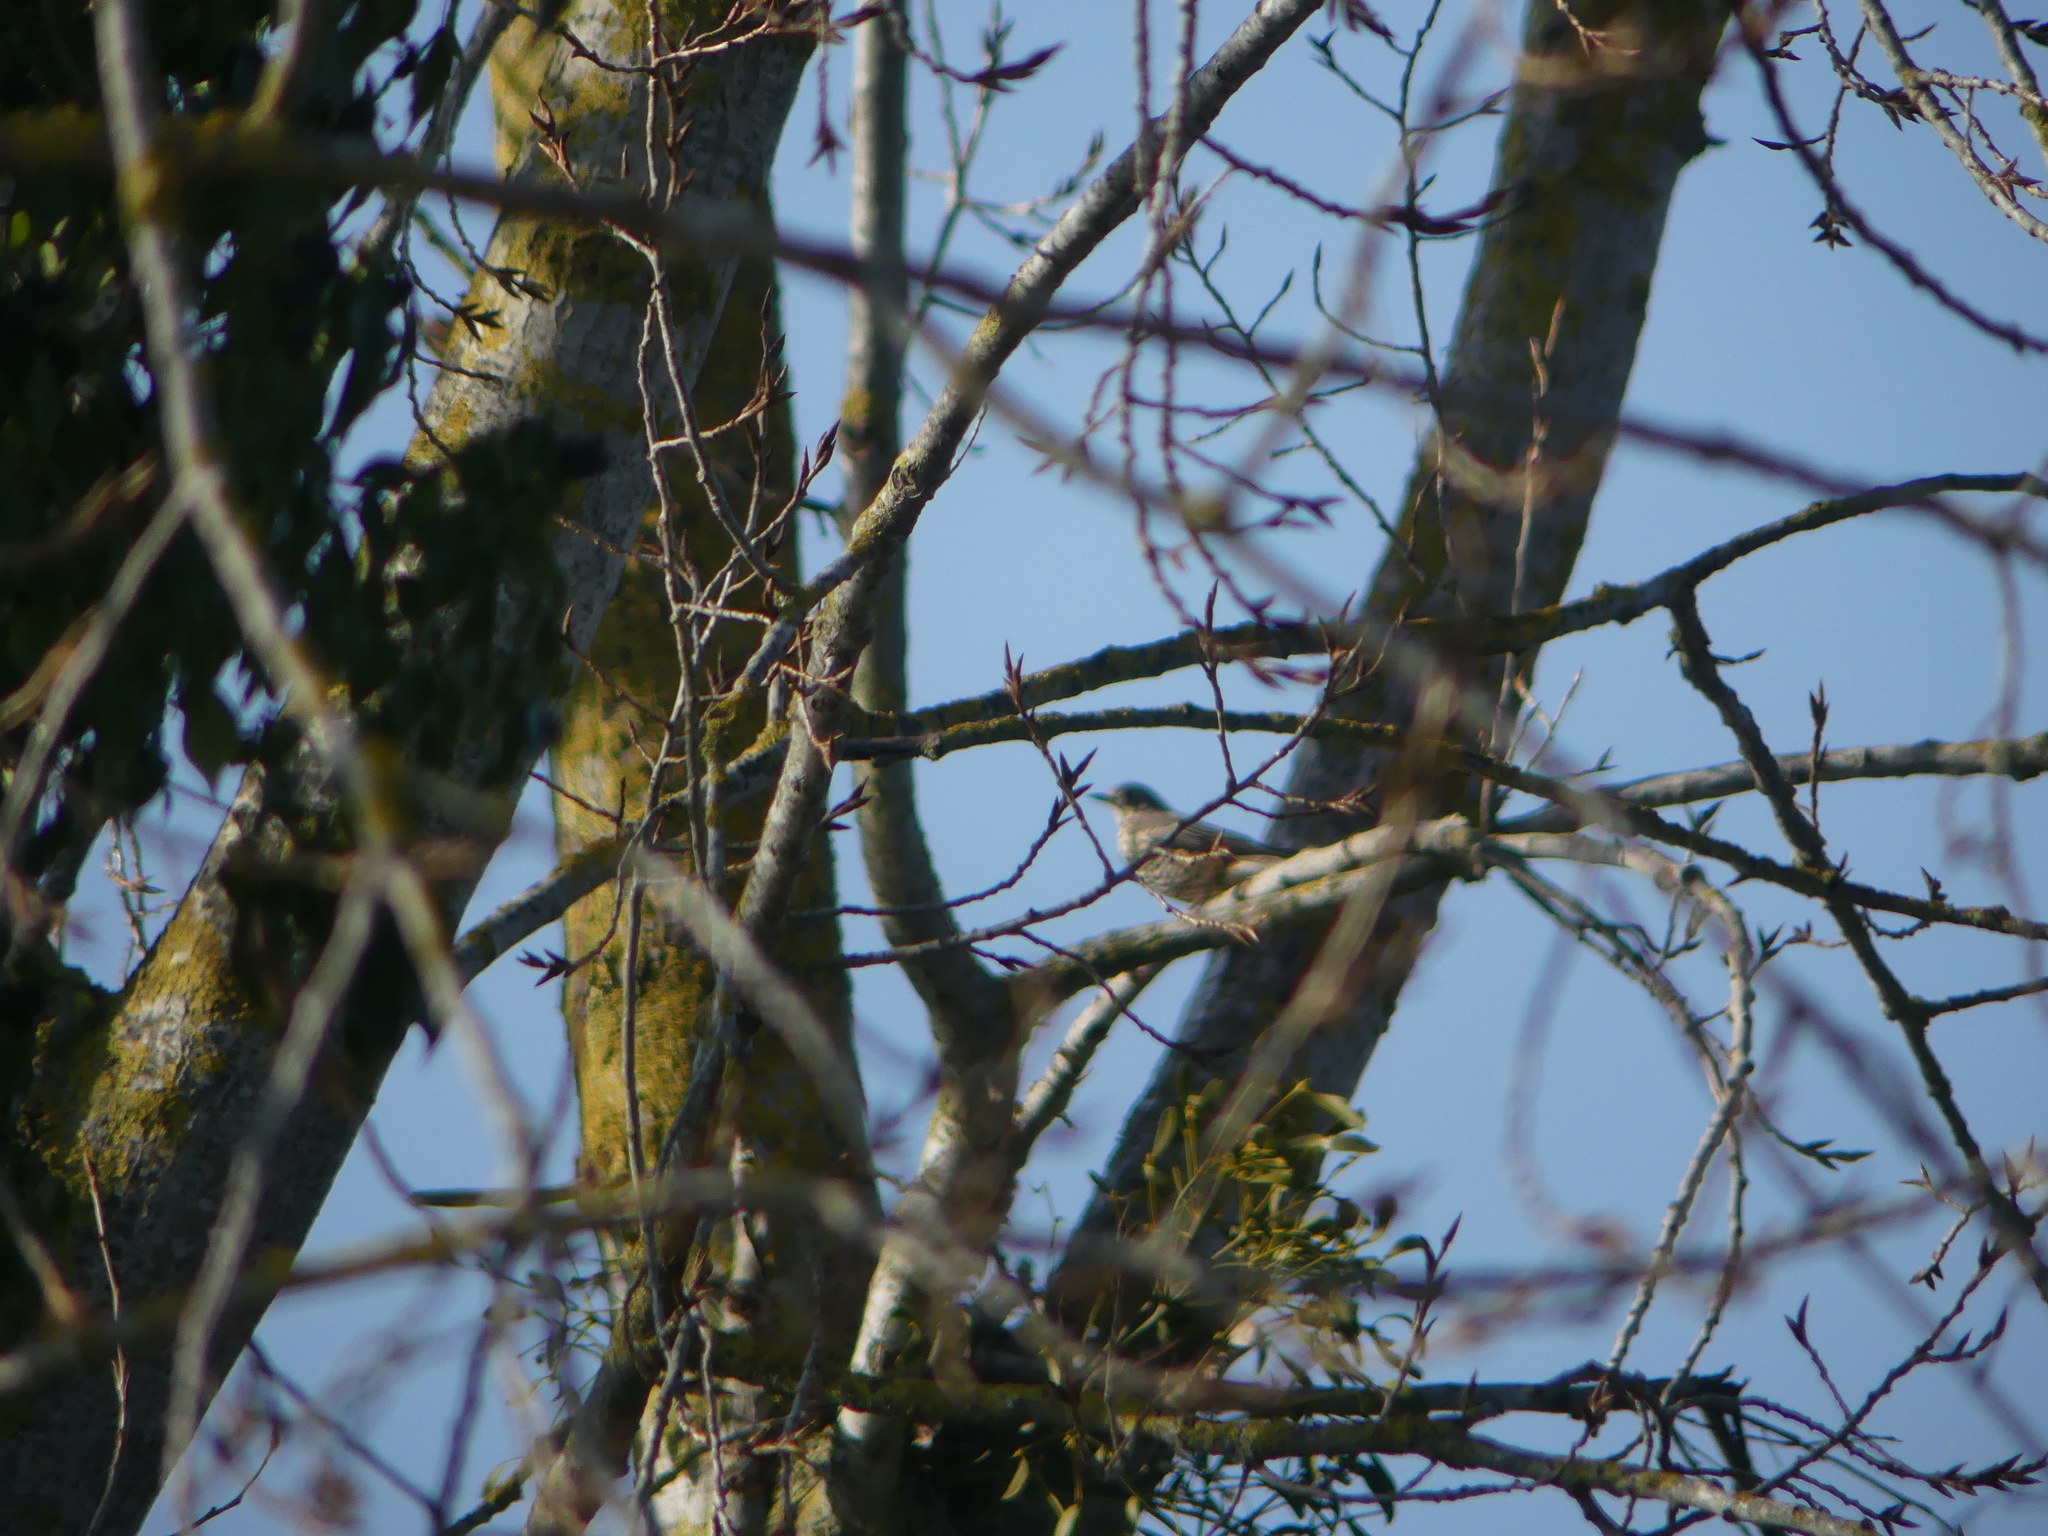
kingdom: Animalia
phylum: Chordata
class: Aves
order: Passeriformes
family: Turdidae
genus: Turdus
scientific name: Turdus viscivorus
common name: Mistle thrush
